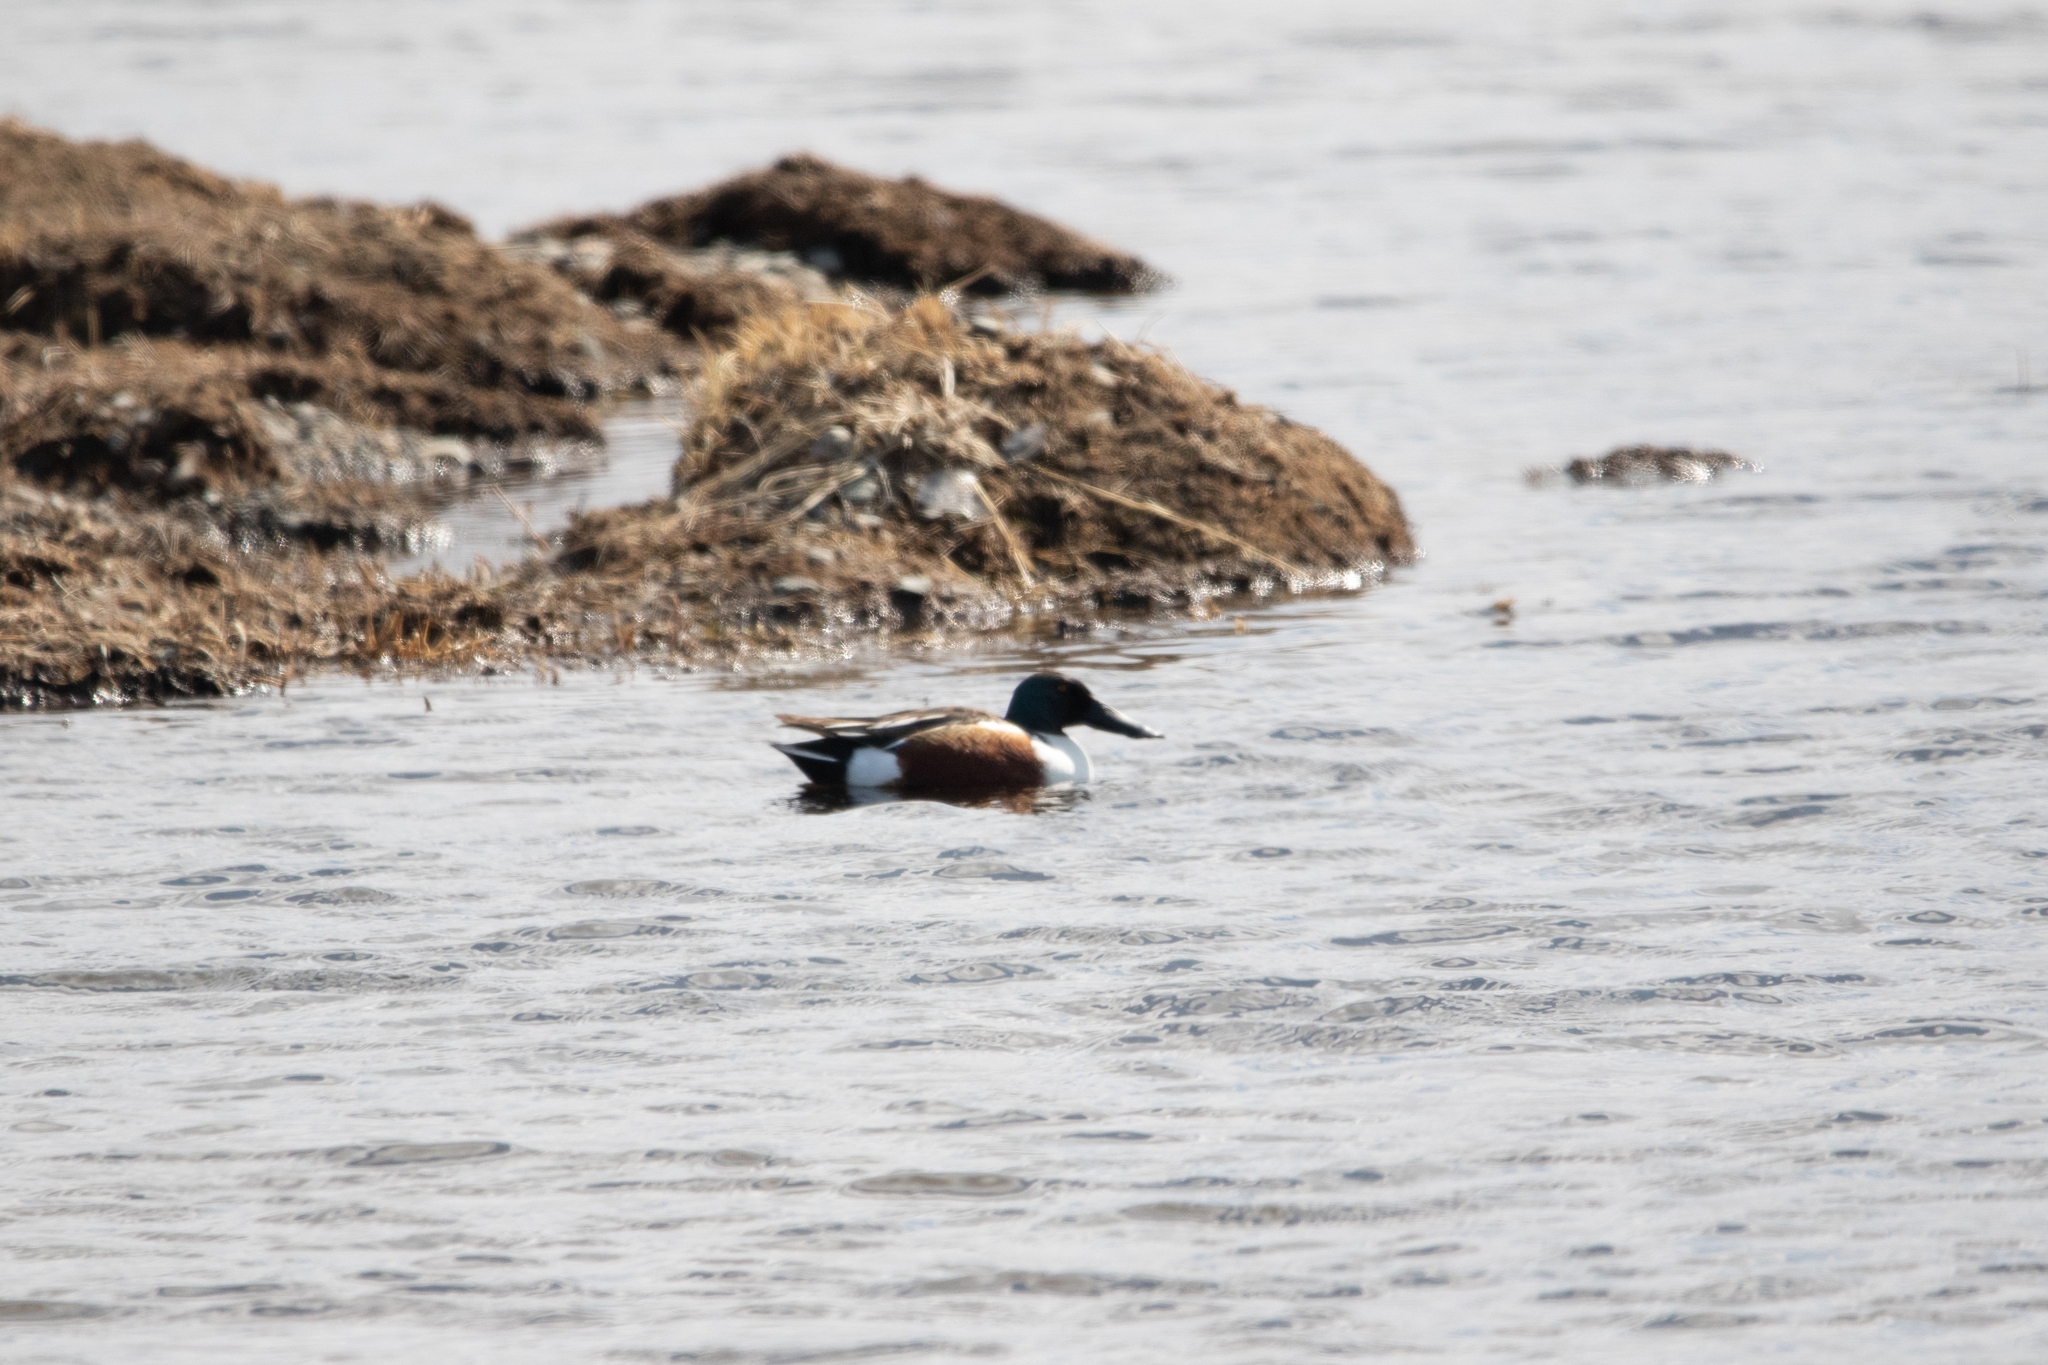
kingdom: Animalia
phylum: Chordata
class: Aves
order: Anseriformes
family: Anatidae
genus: Spatula
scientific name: Spatula clypeata
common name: Northern shoveler
